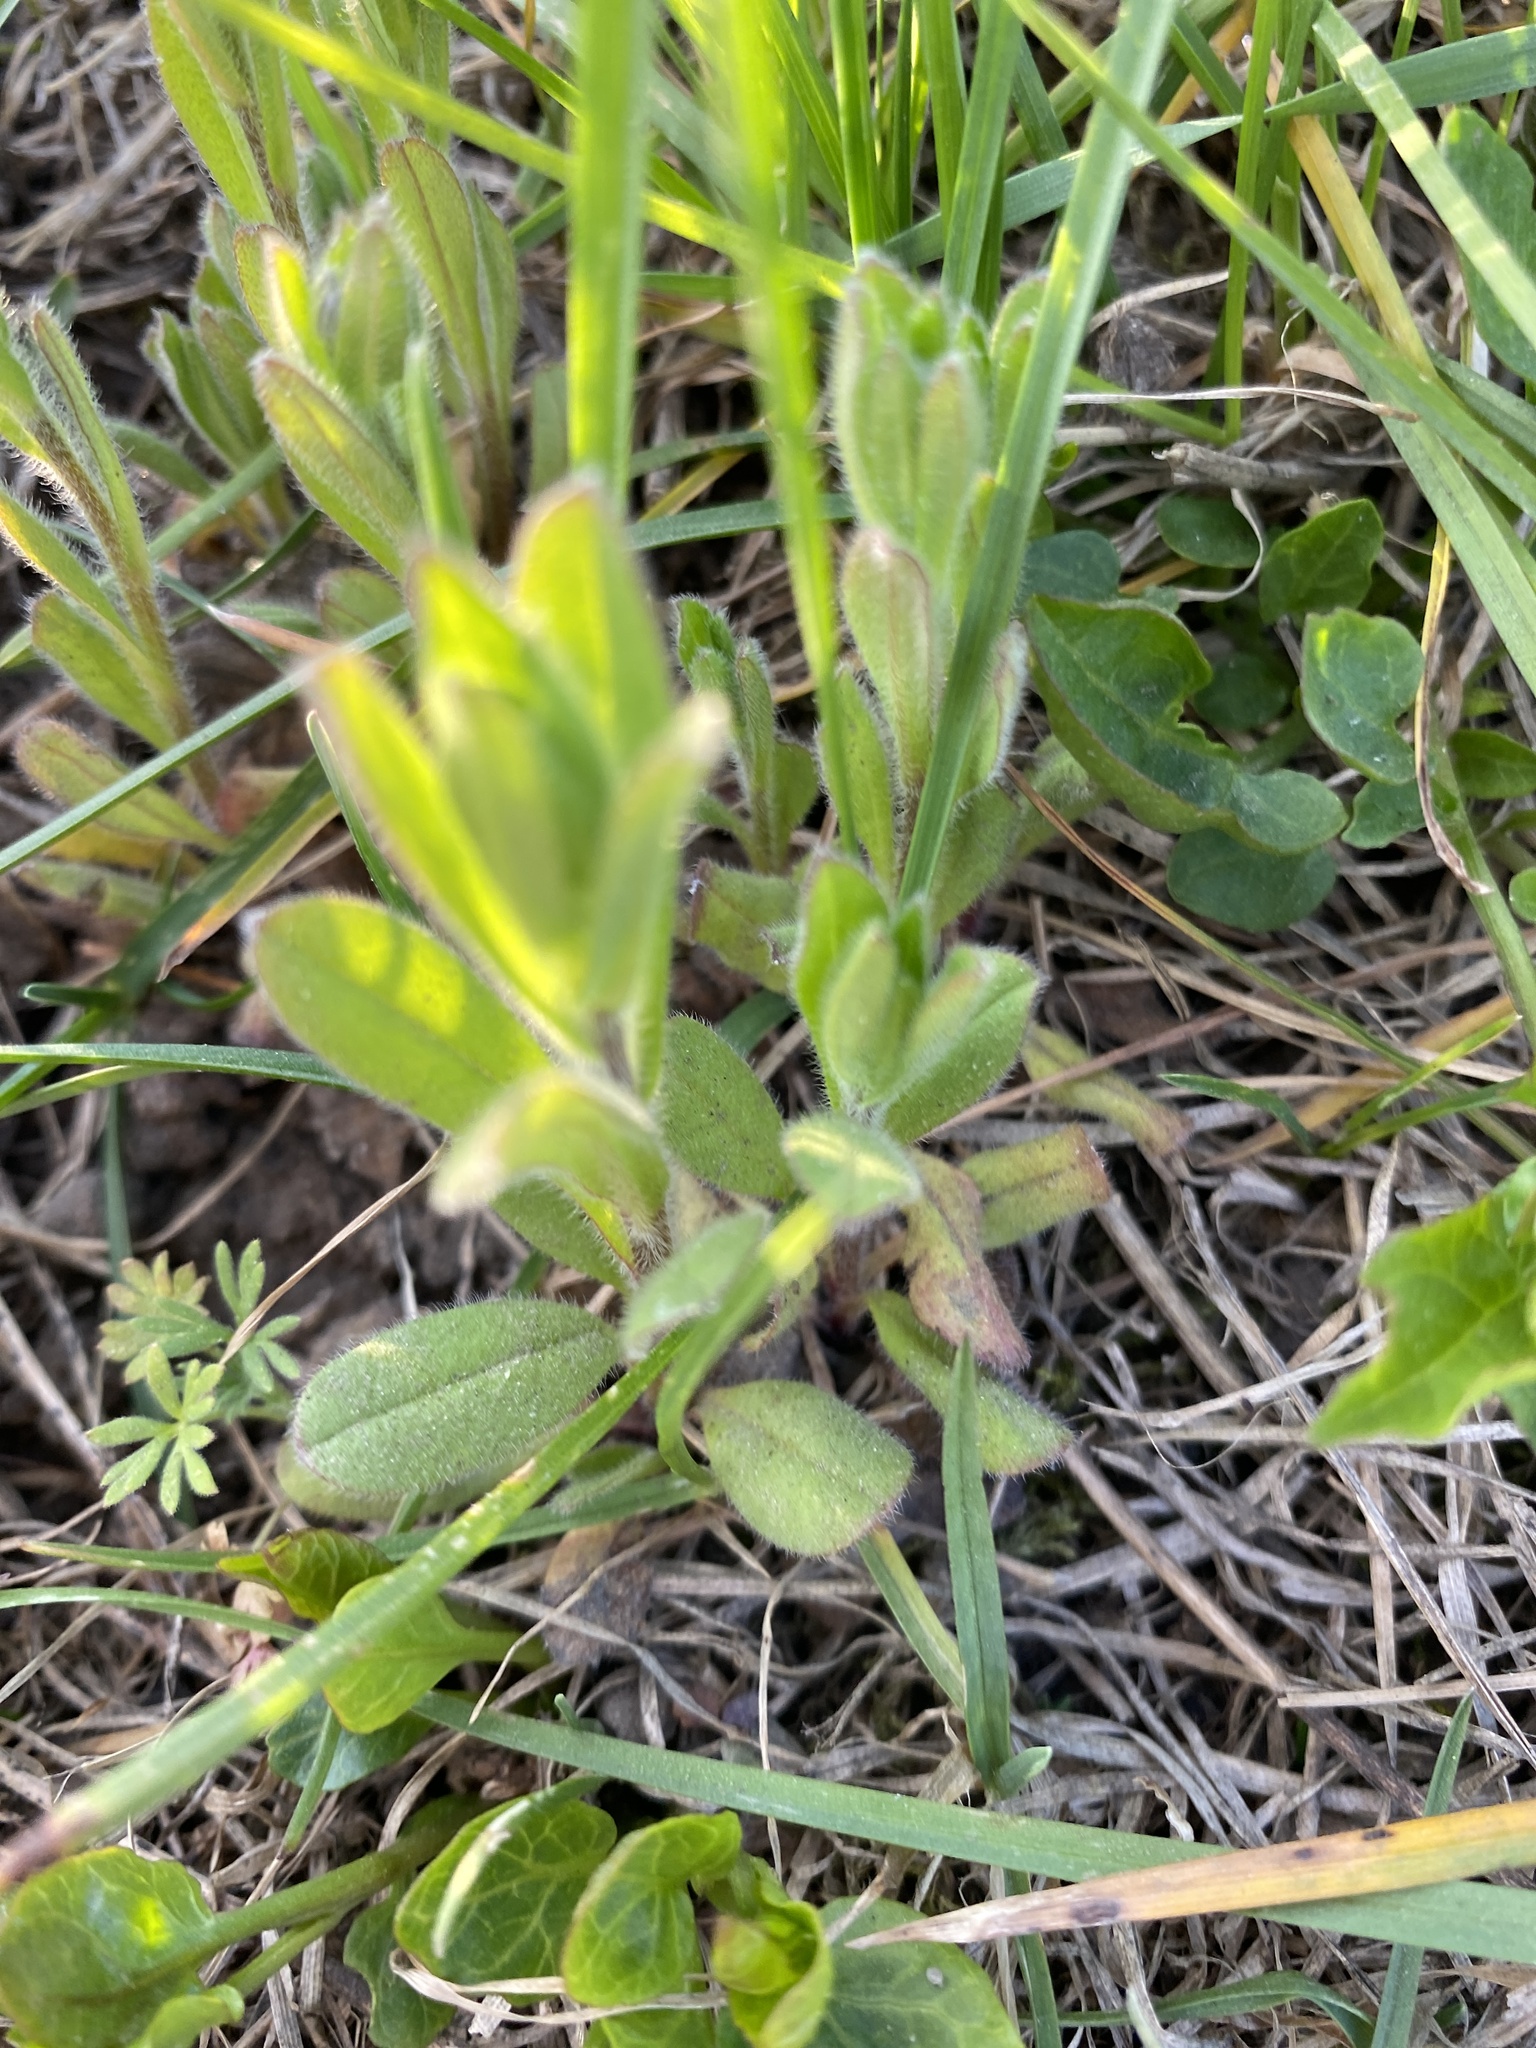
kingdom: Plantae
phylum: Tracheophyta
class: Magnoliopsida
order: Boraginales
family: Boraginaceae
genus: Myosotis
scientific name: Myosotis arvensis
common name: Field forget-me-not
